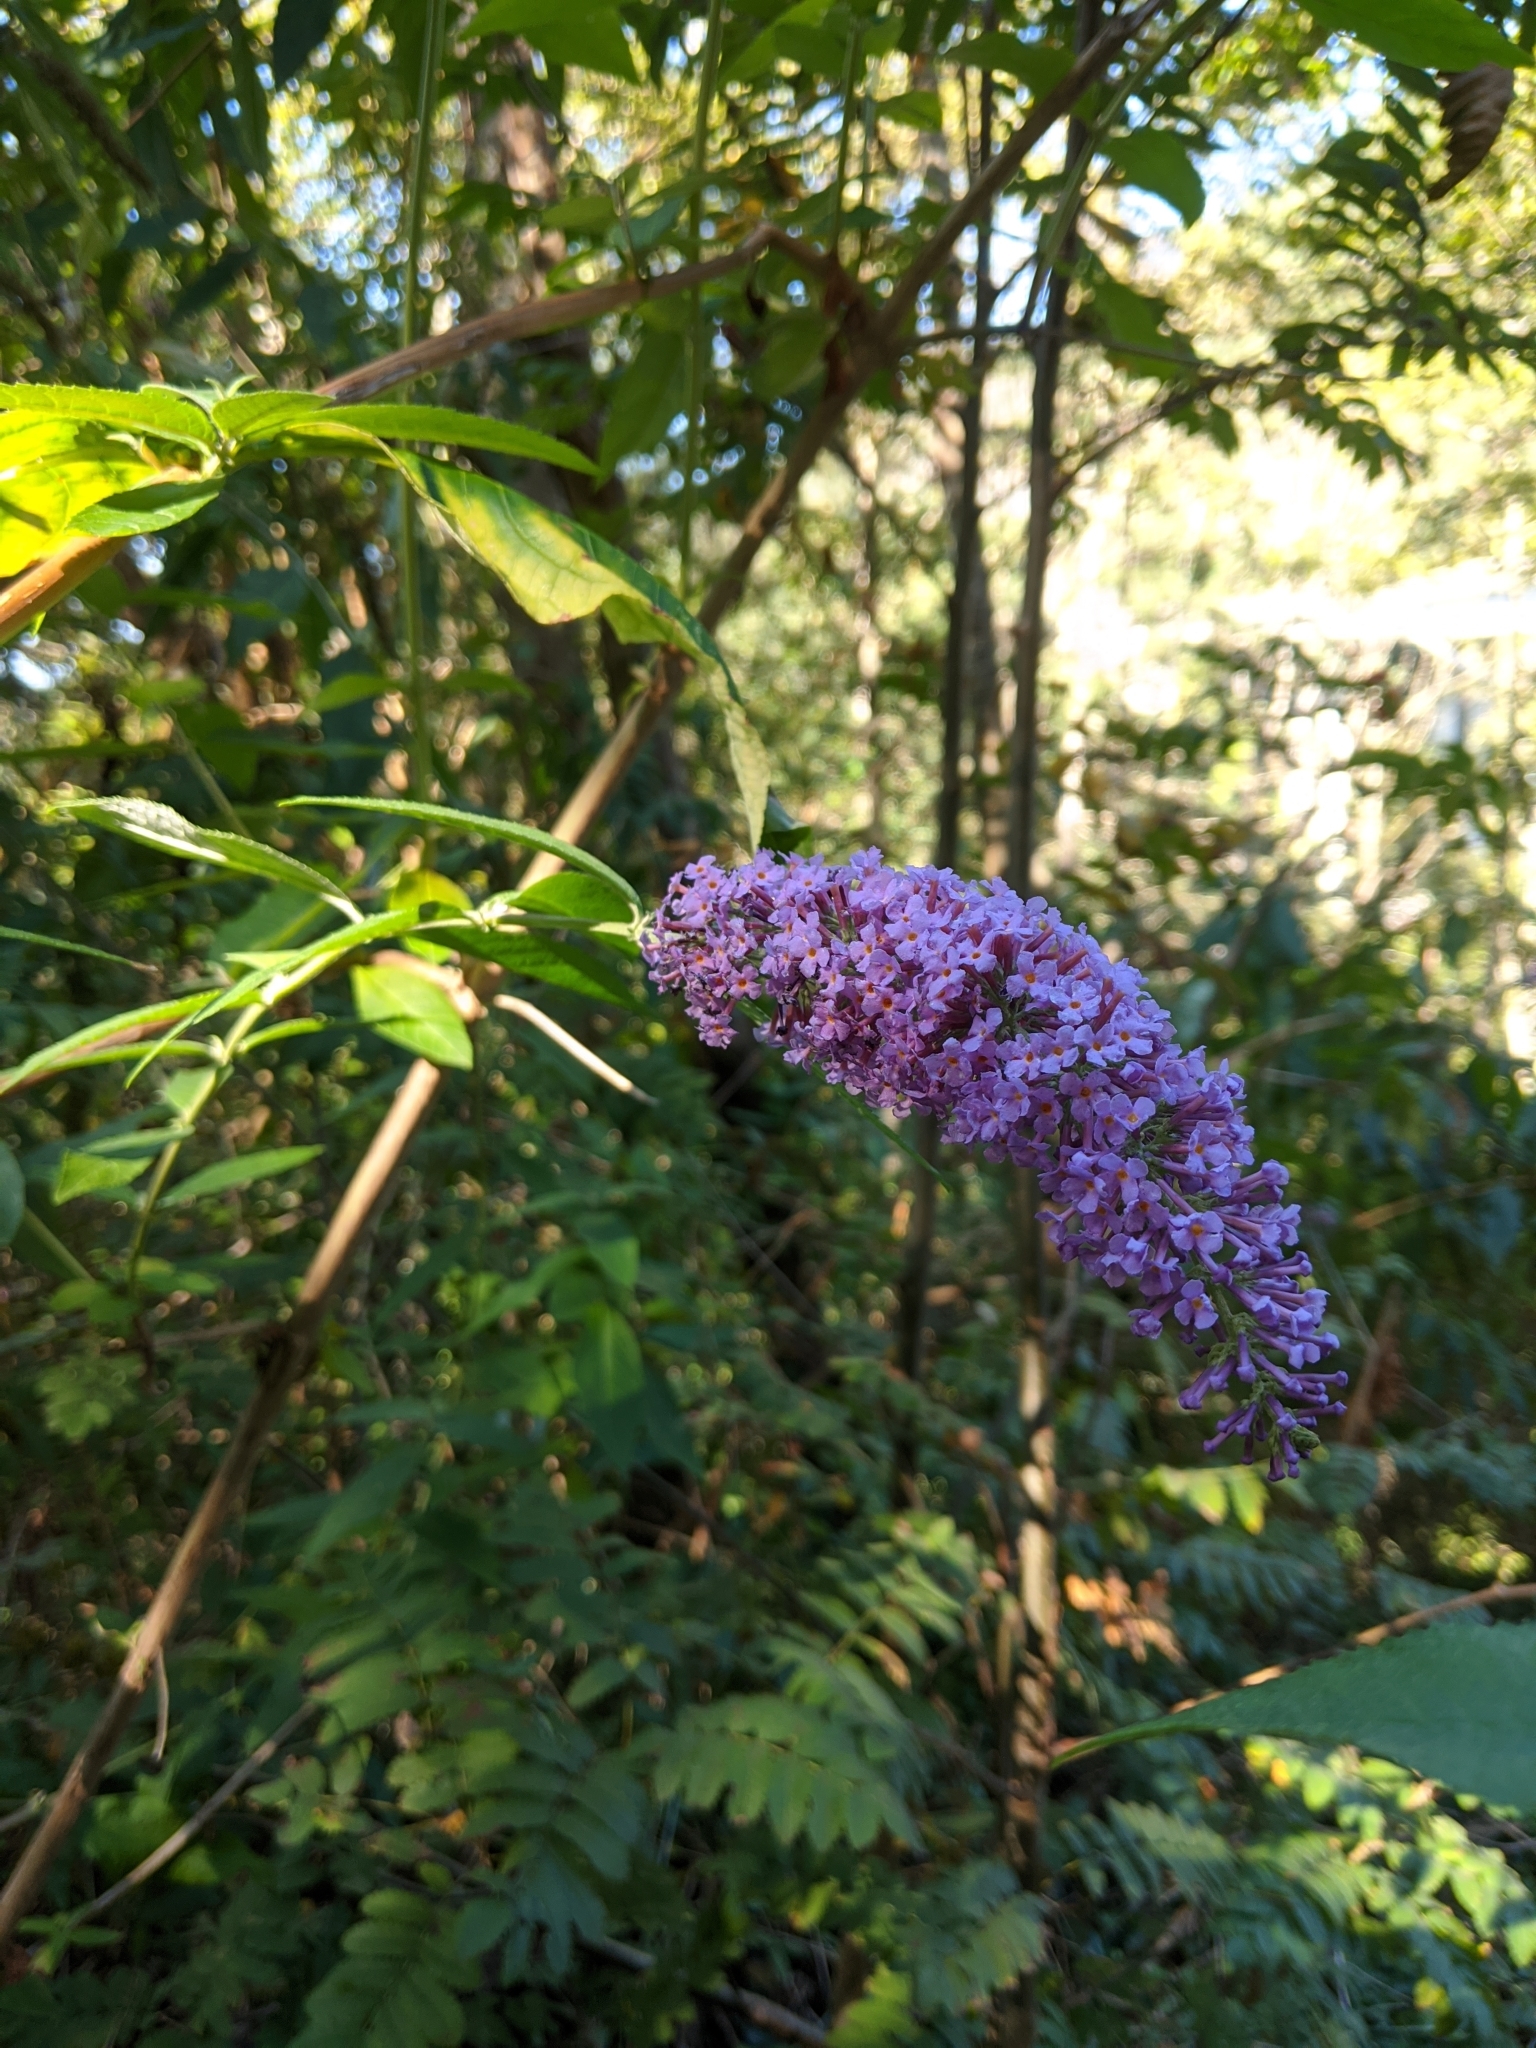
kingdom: Plantae
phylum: Tracheophyta
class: Magnoliopsida
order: Lamiales
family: Scrophulariaceae
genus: Buddleja
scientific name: Buddleja davidii
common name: Butterfly-bush
